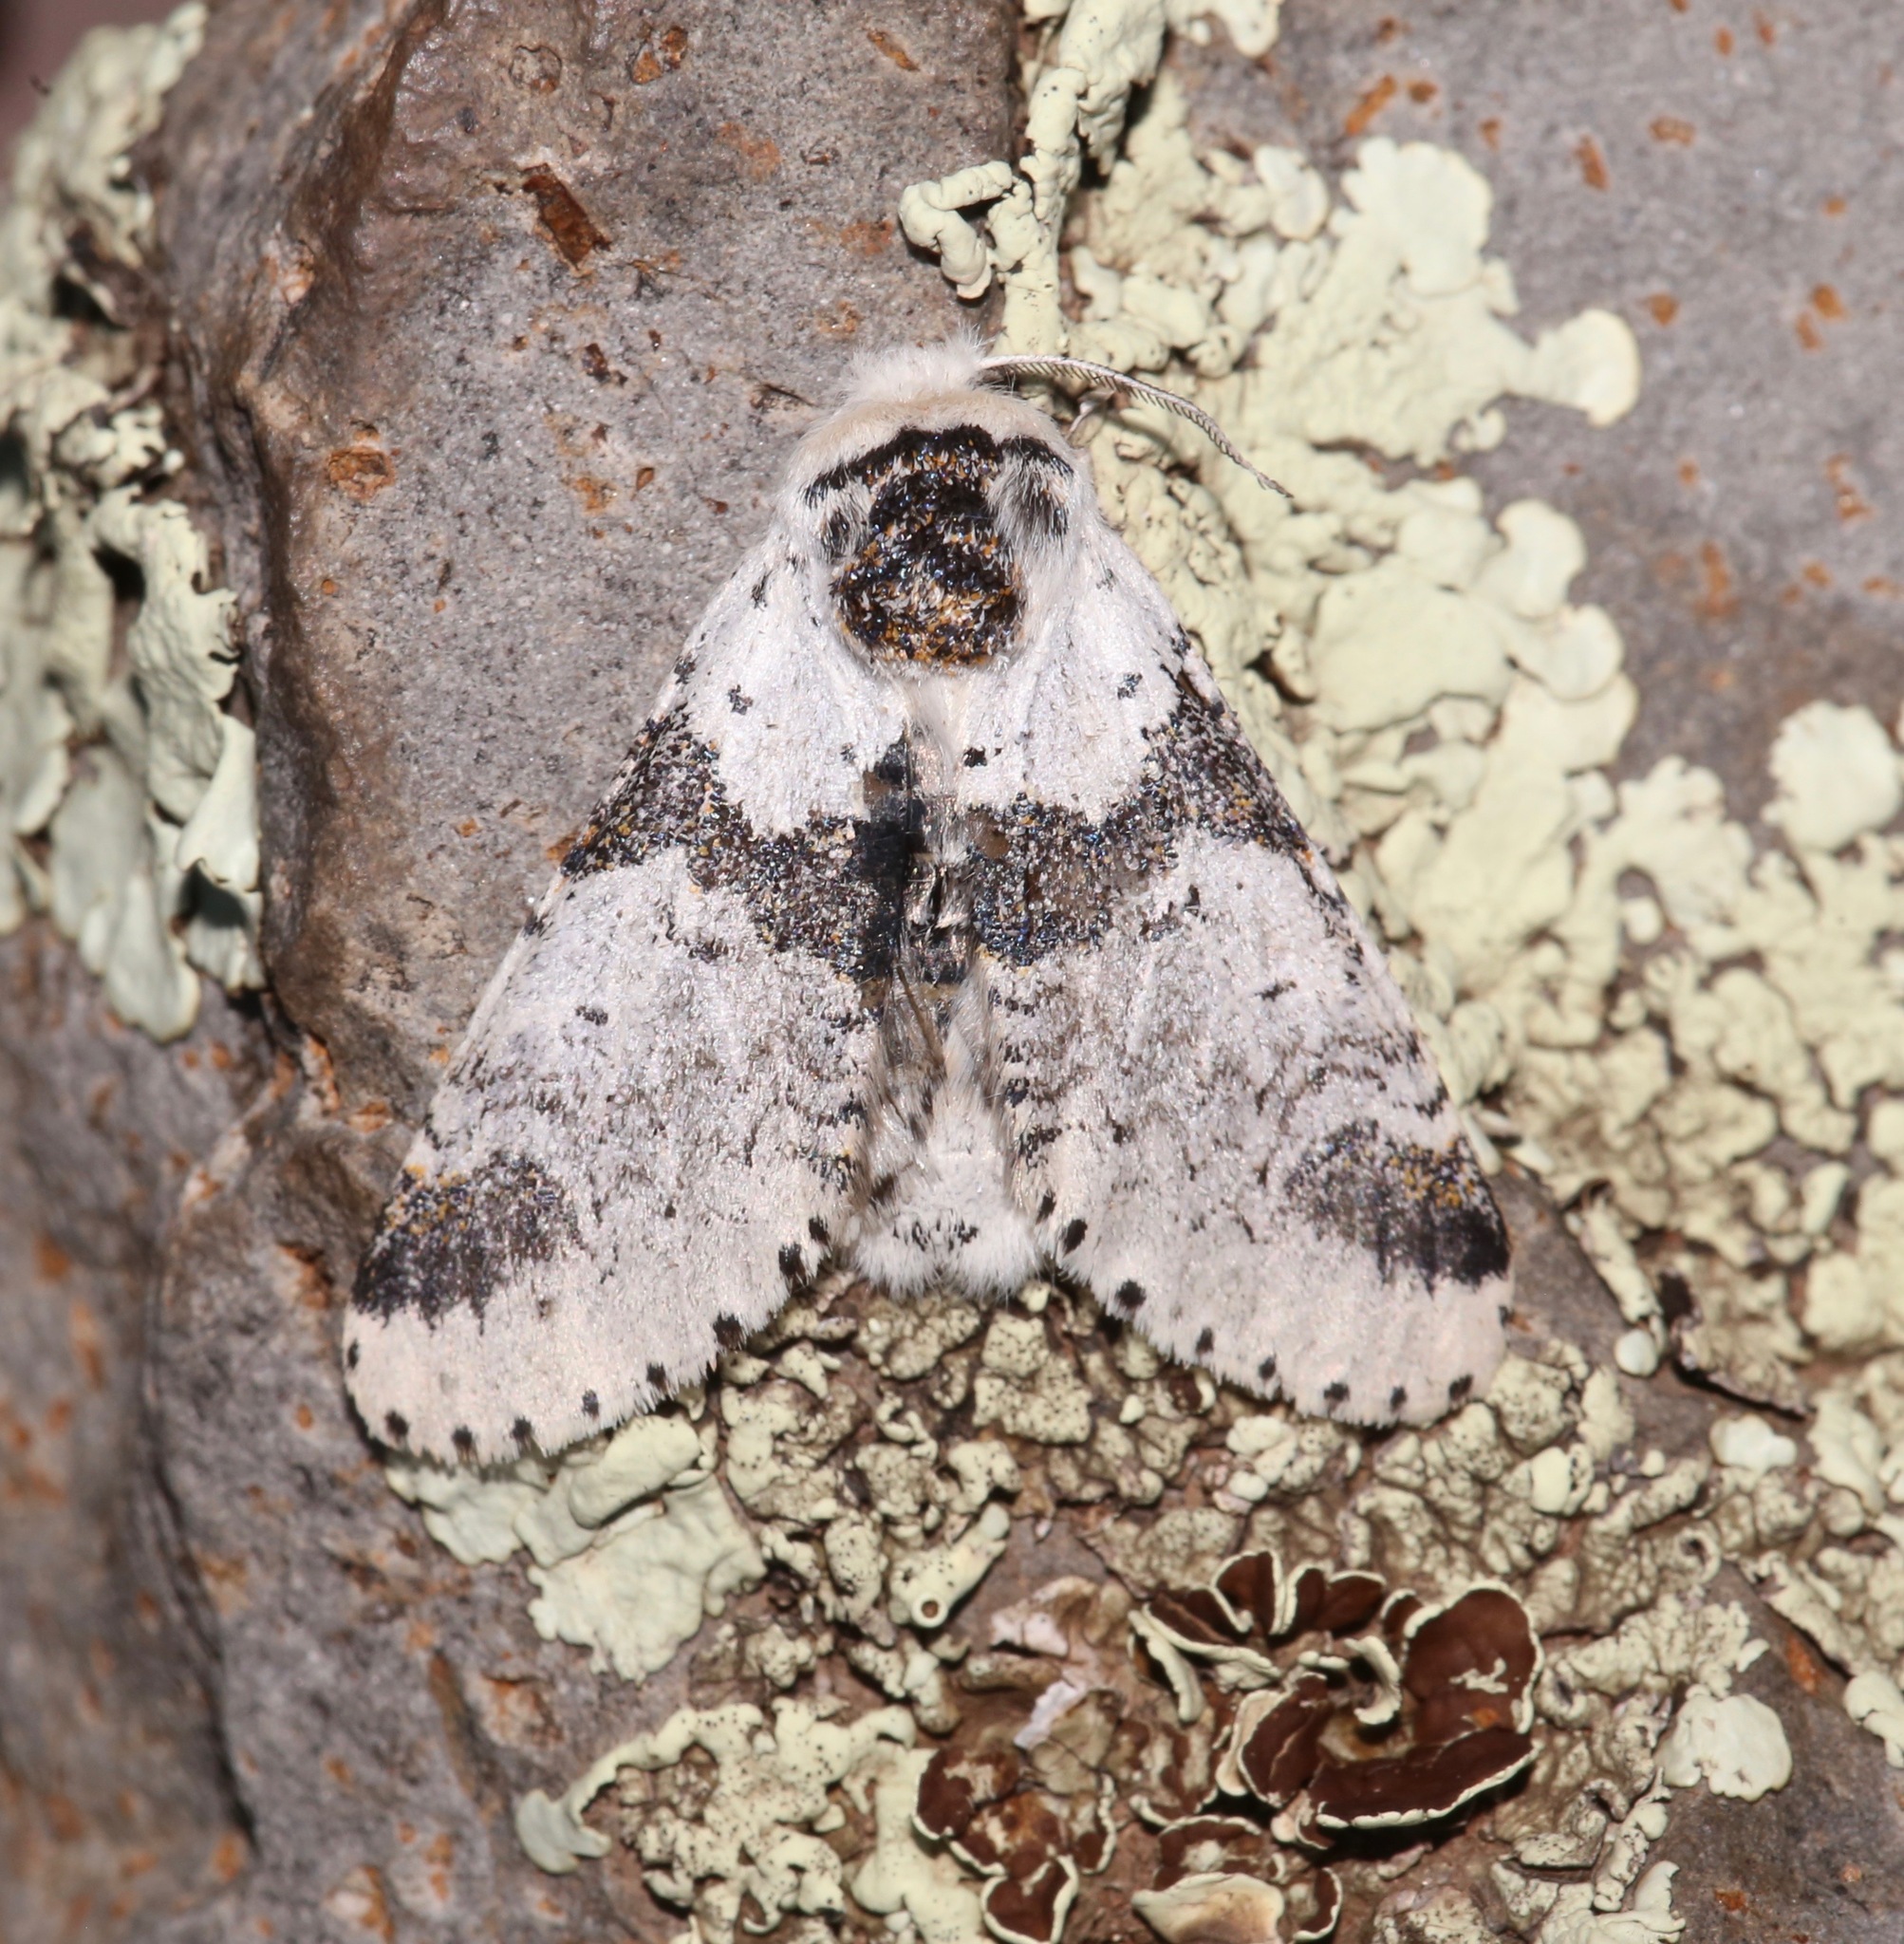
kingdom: Animalia
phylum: Arthropoda
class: Insecta
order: Lepidoptera
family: Notodontidae
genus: Furcula
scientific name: Furcula scolopendrina
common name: Zigzag furcula moth
